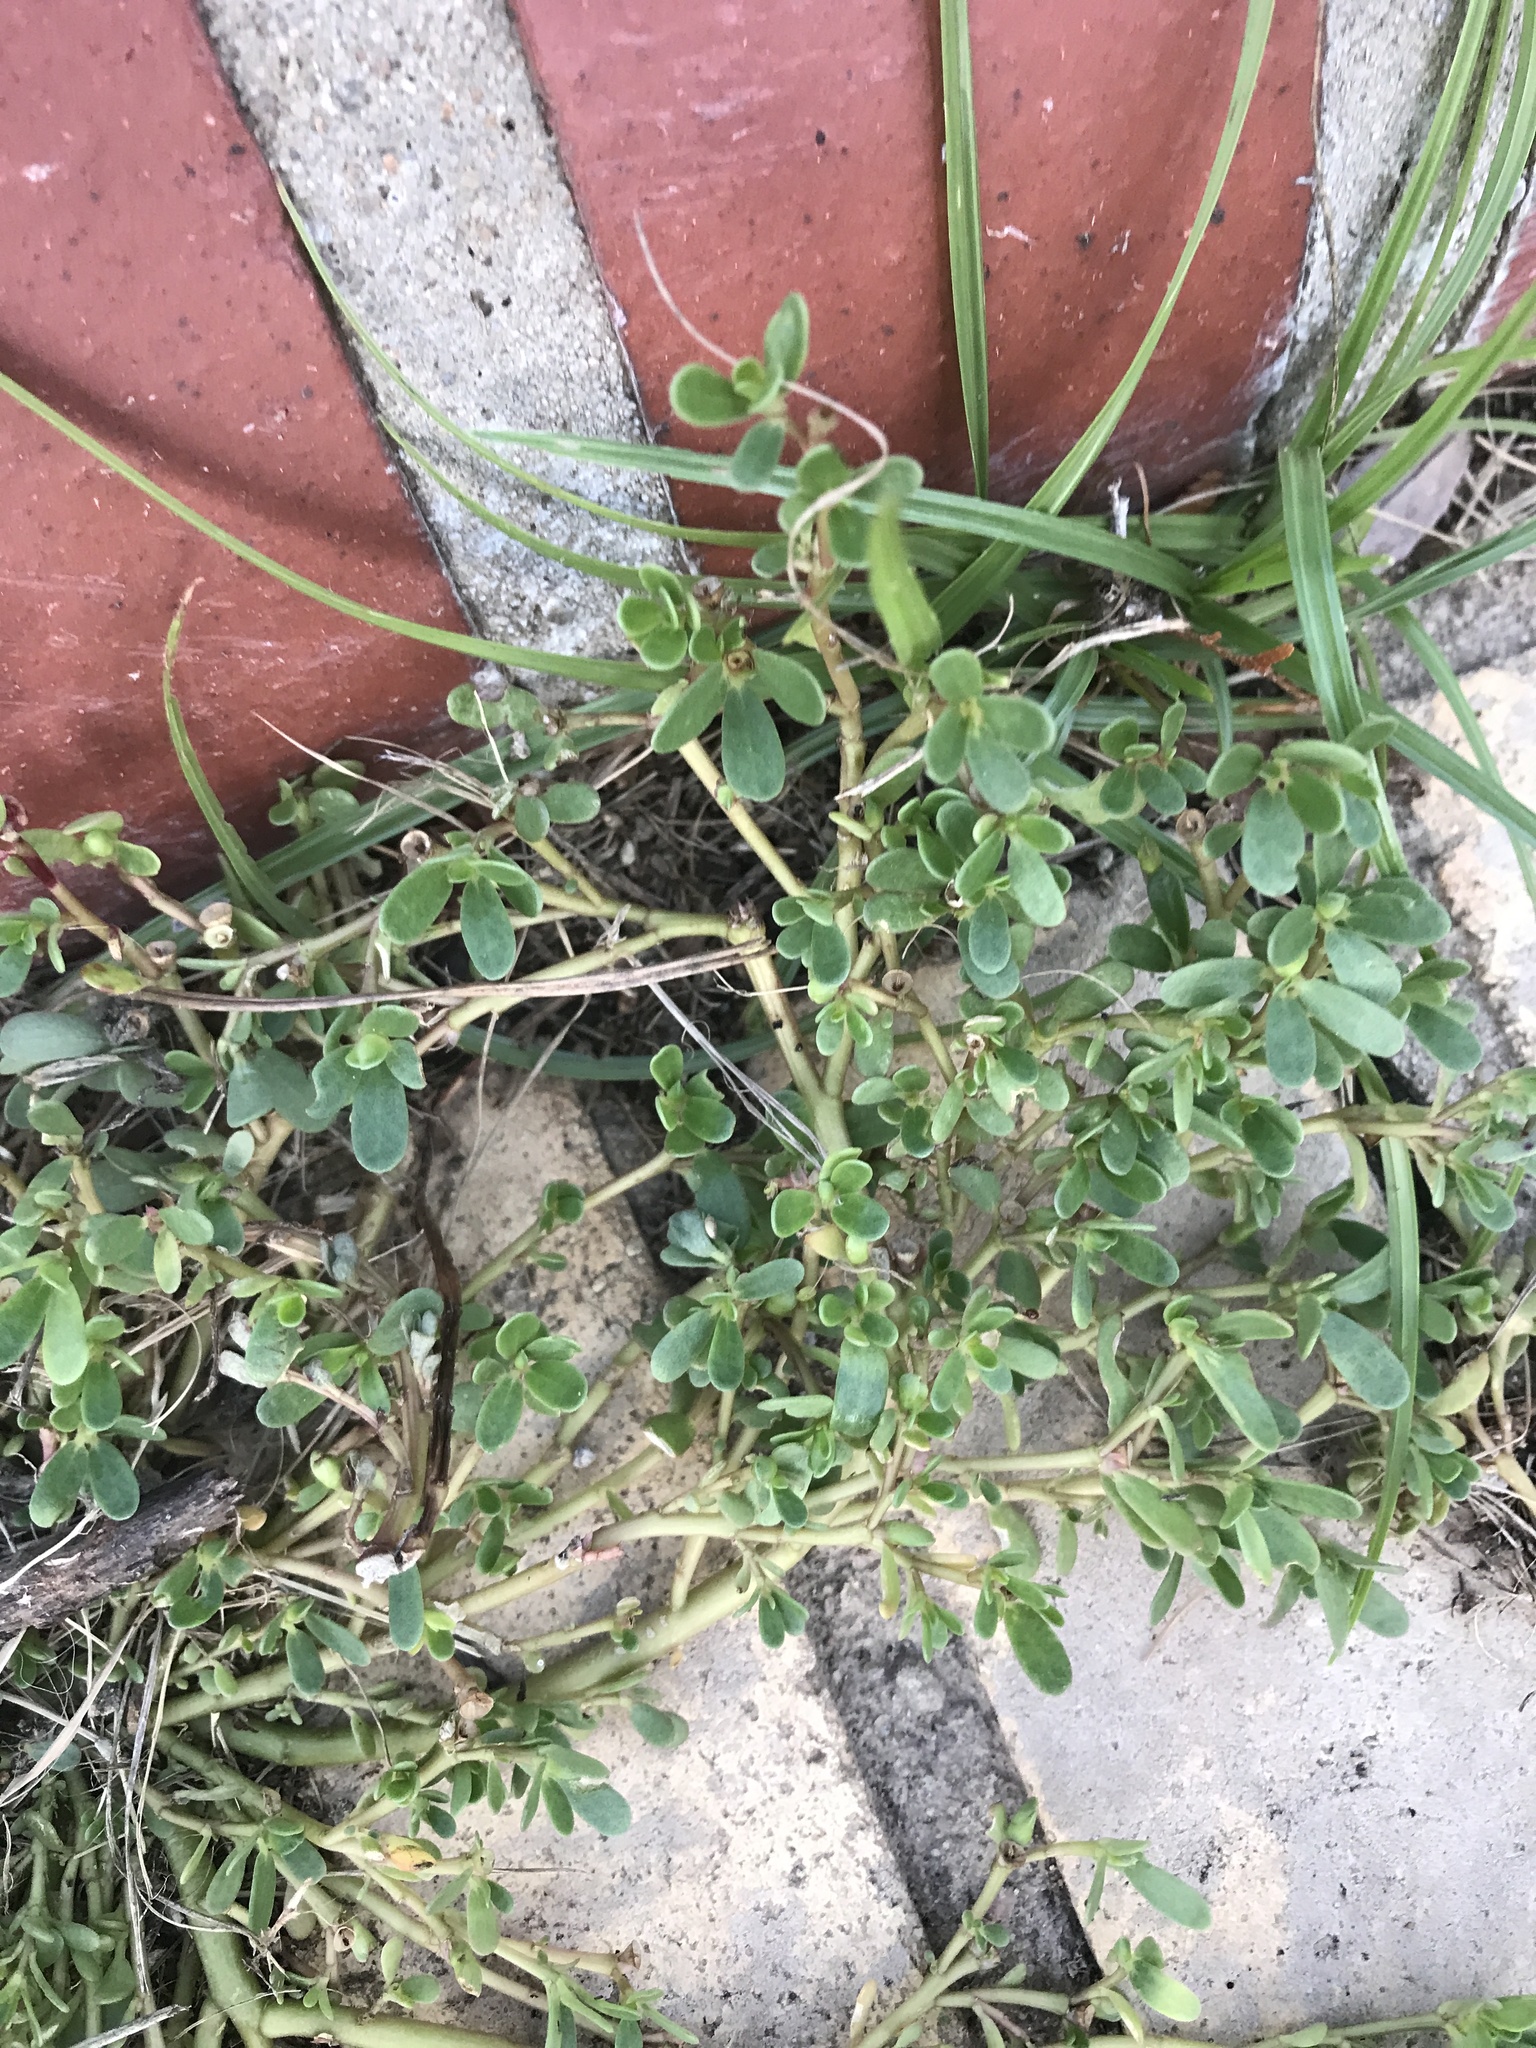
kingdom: Plantae
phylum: Tracheophyta
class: Magnoliopsida
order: Caryophyllales
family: Portulacaceae
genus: Portulaca
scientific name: Portulaca oleracea
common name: Common purslane
